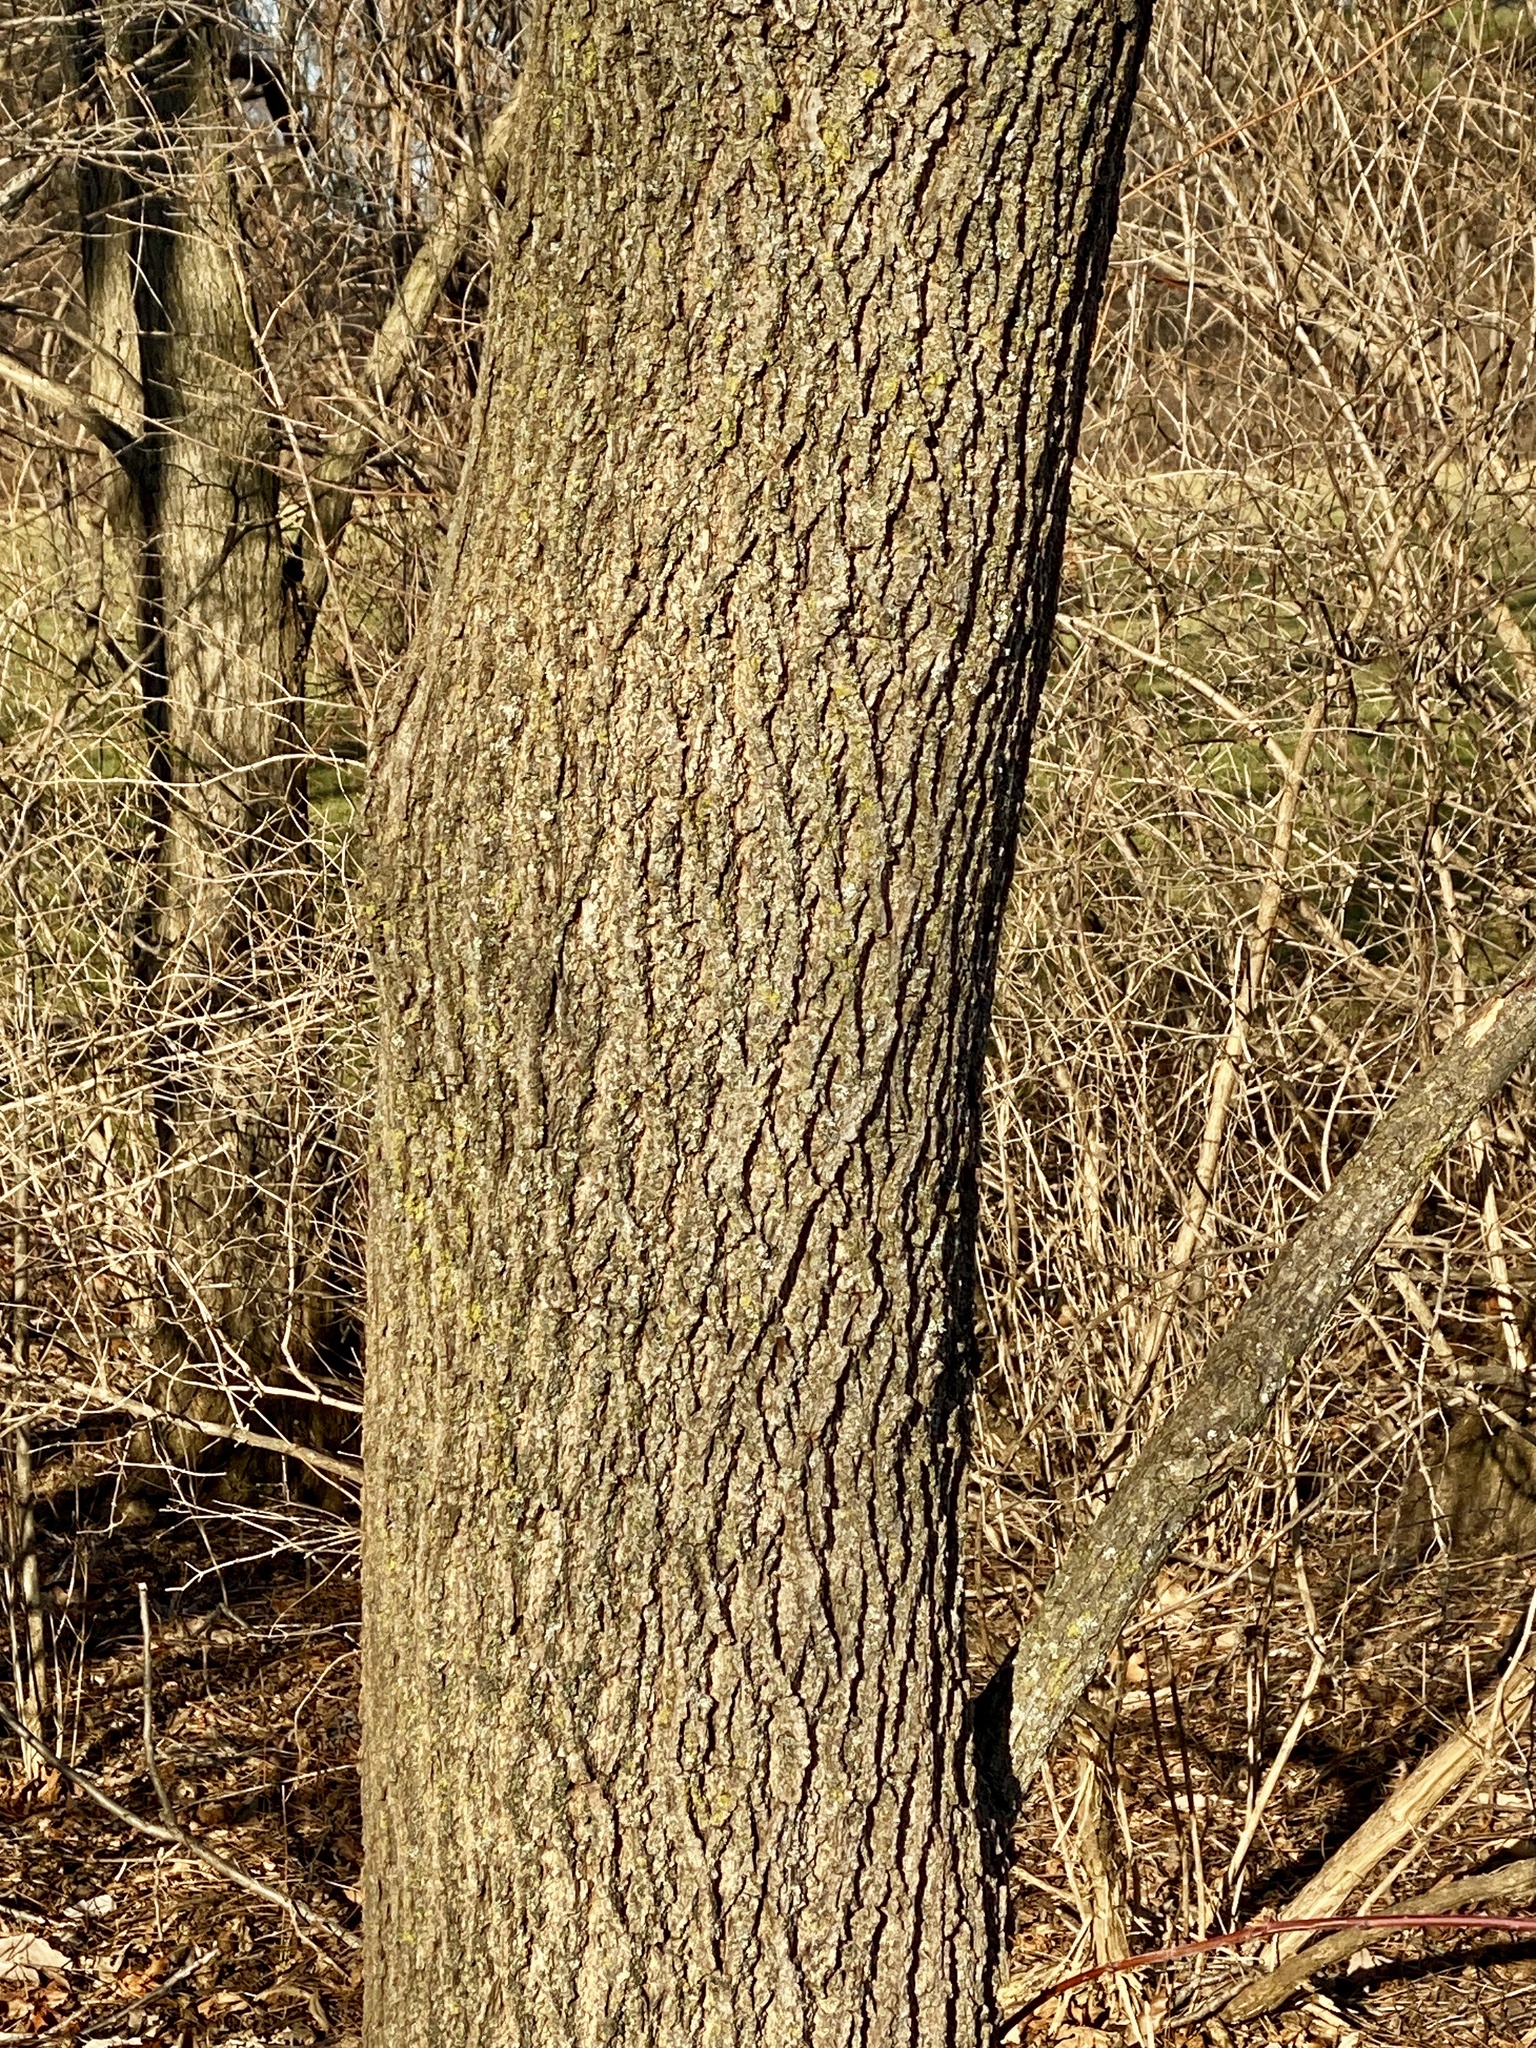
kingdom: Plantae
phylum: Tracheophyta
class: Magnoliopsida
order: Fagales
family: Juglandaceae
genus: Juglans
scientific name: Juglans nigra
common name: Black walnut
